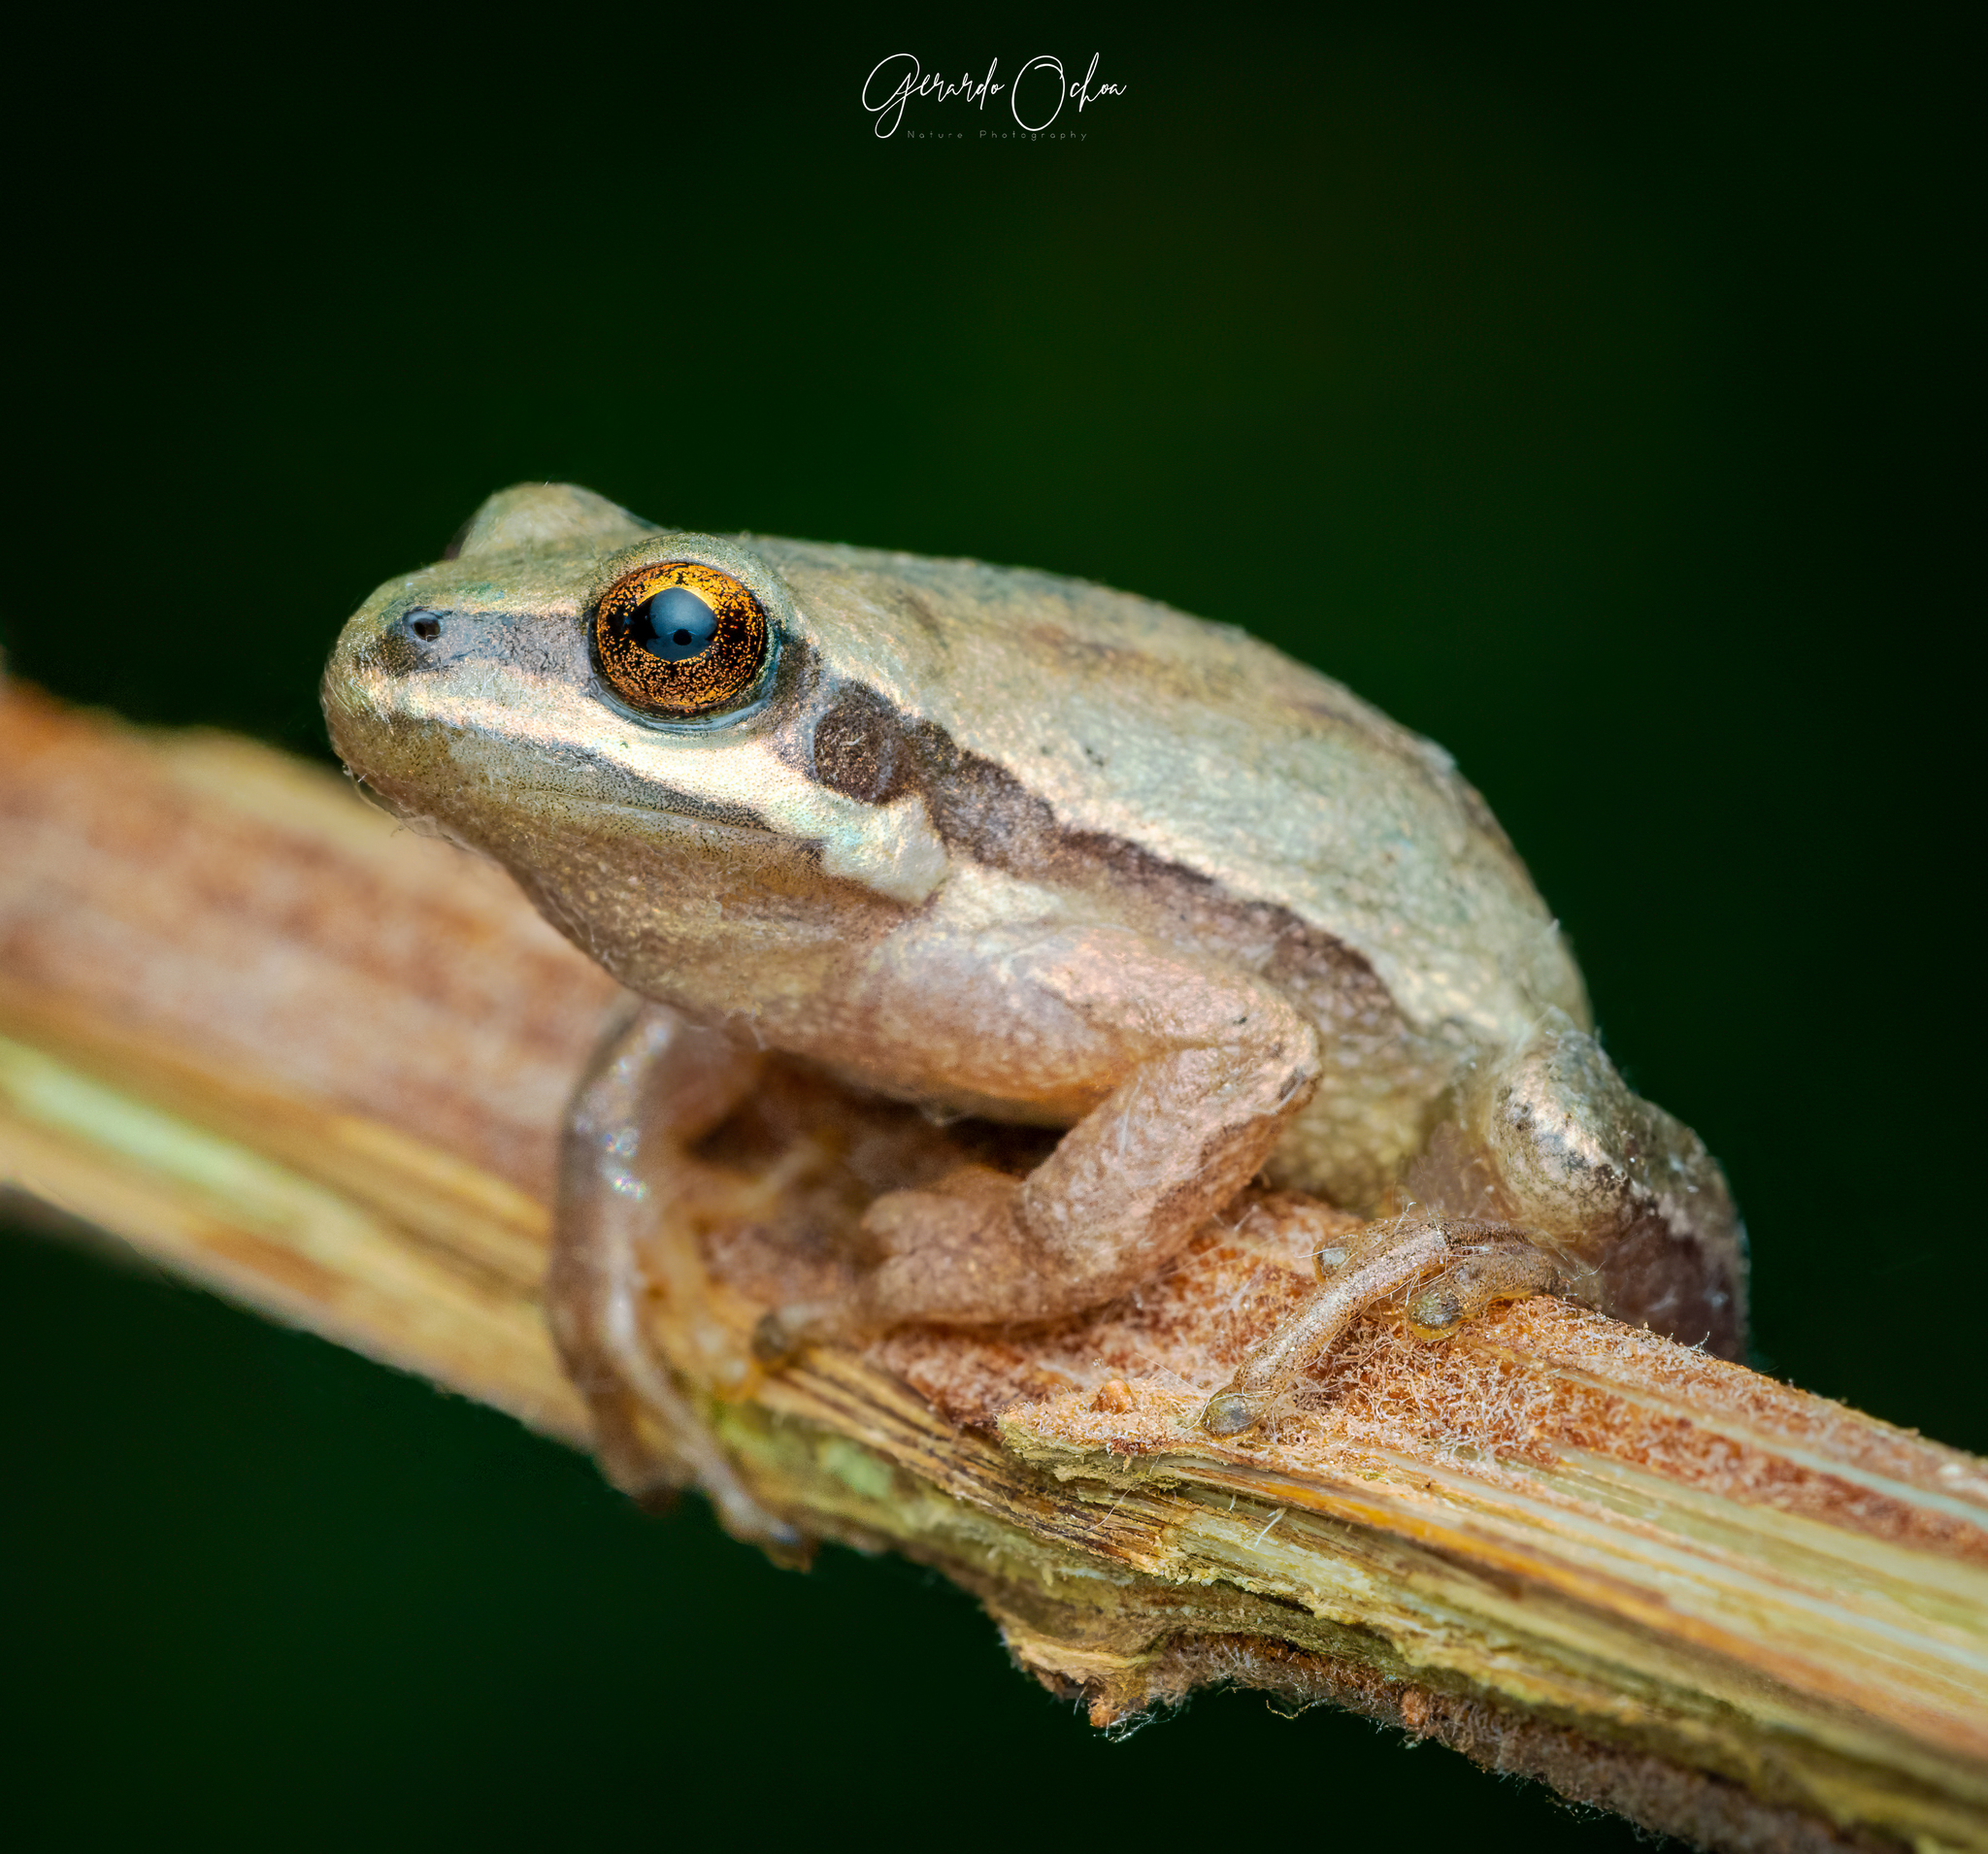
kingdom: Animalia
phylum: Chordata
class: Amphibia
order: Anura
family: Hylidae
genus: Dryophytes
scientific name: Dryophytes eximius
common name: Mountain treefrog
